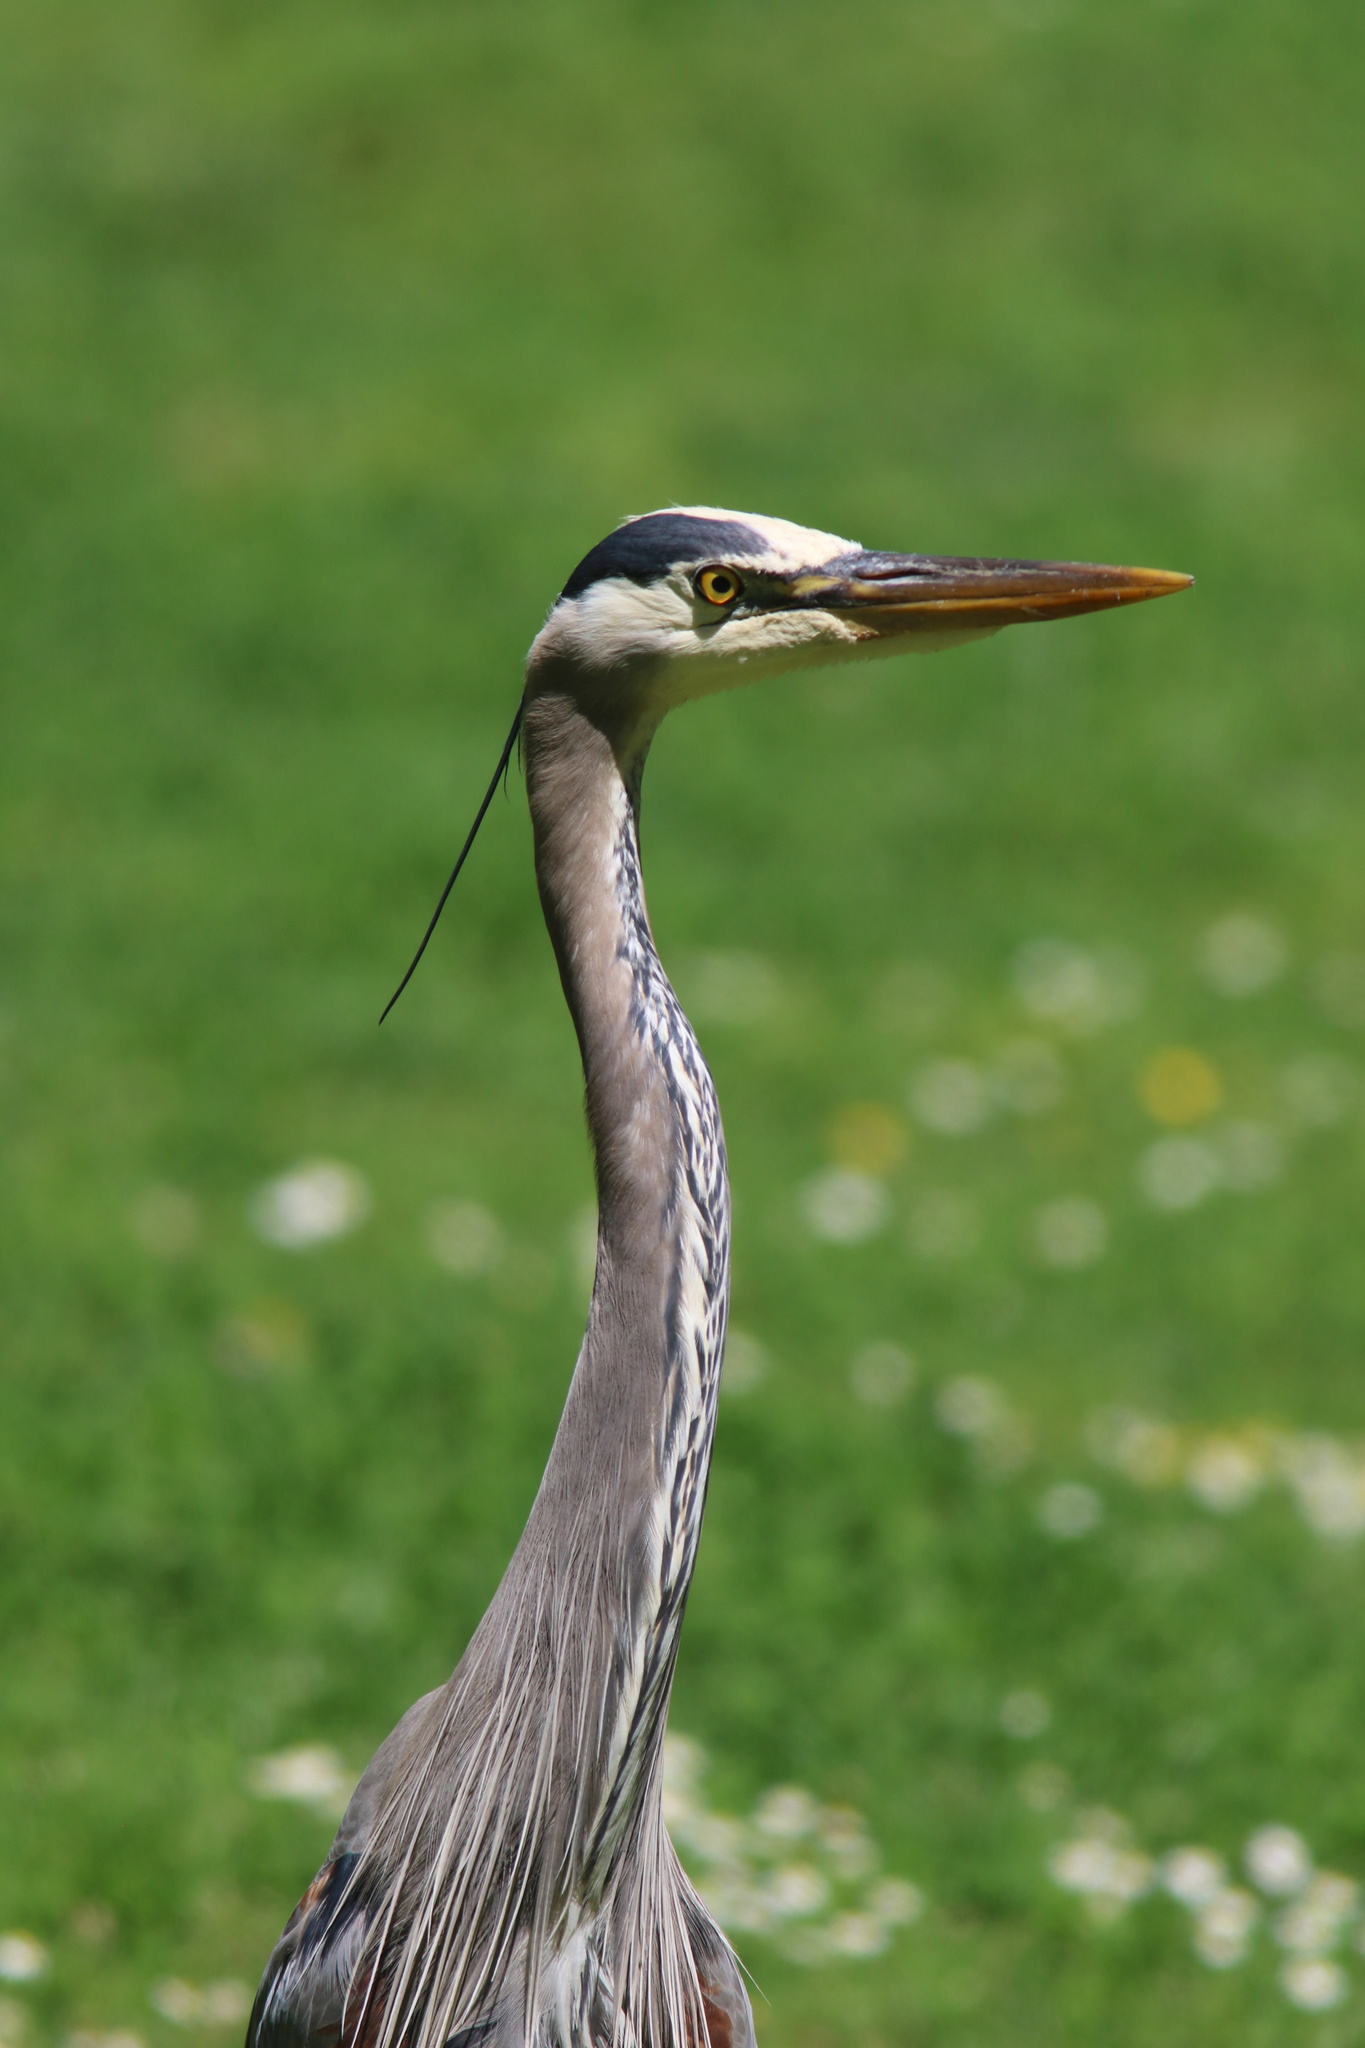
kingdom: Animalia
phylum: Chordata
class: Aves
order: Pelecaniformes
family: Ardeidae
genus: Ardea
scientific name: Ardea herodias
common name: Great blue heron
